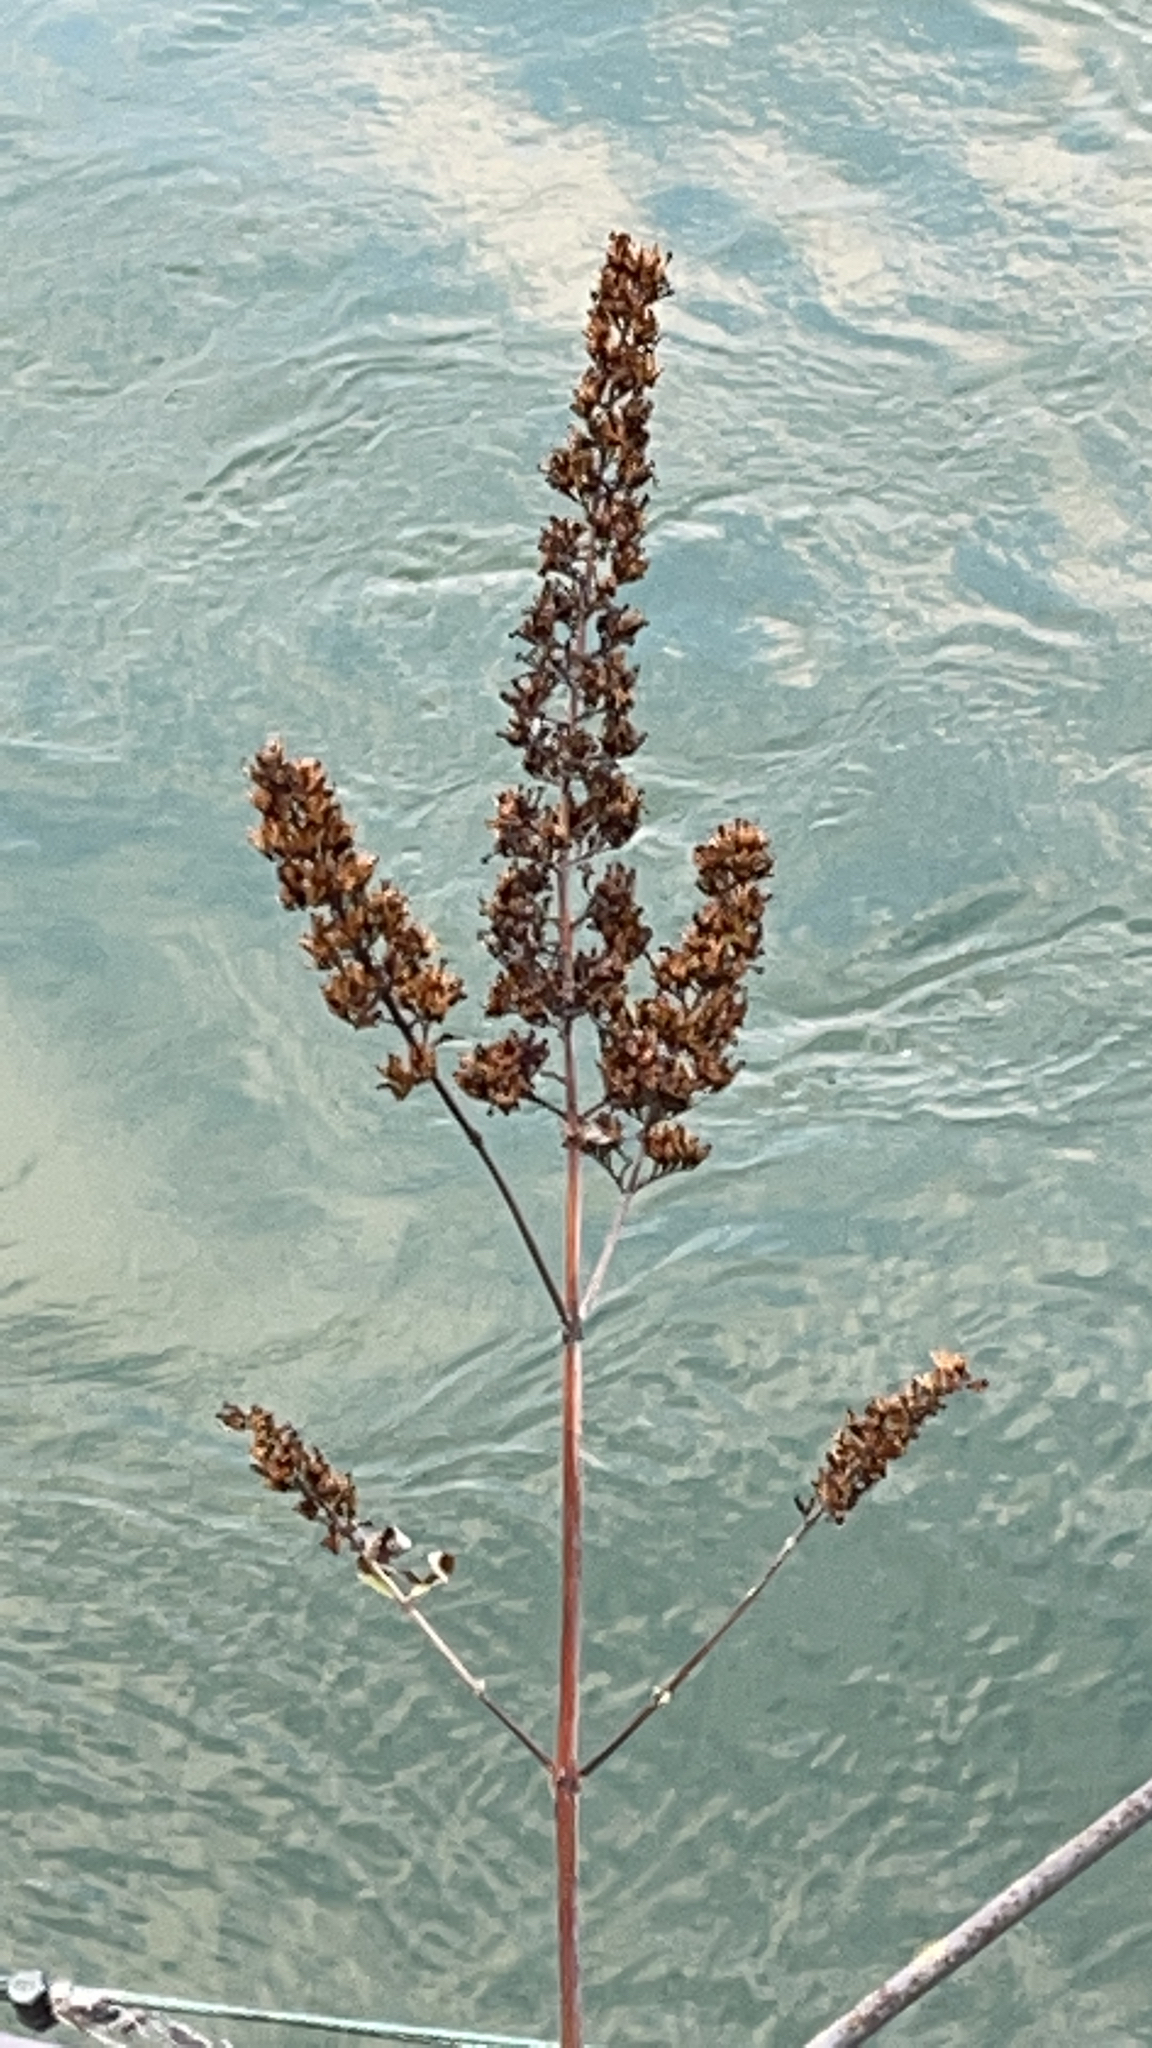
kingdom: Plantae
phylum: Tracheophyta
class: Magnoliopsida
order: Lamiales
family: Scrophulariaceae
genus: Buddleja
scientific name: Buddleja davidii
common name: Butterfly-bush
